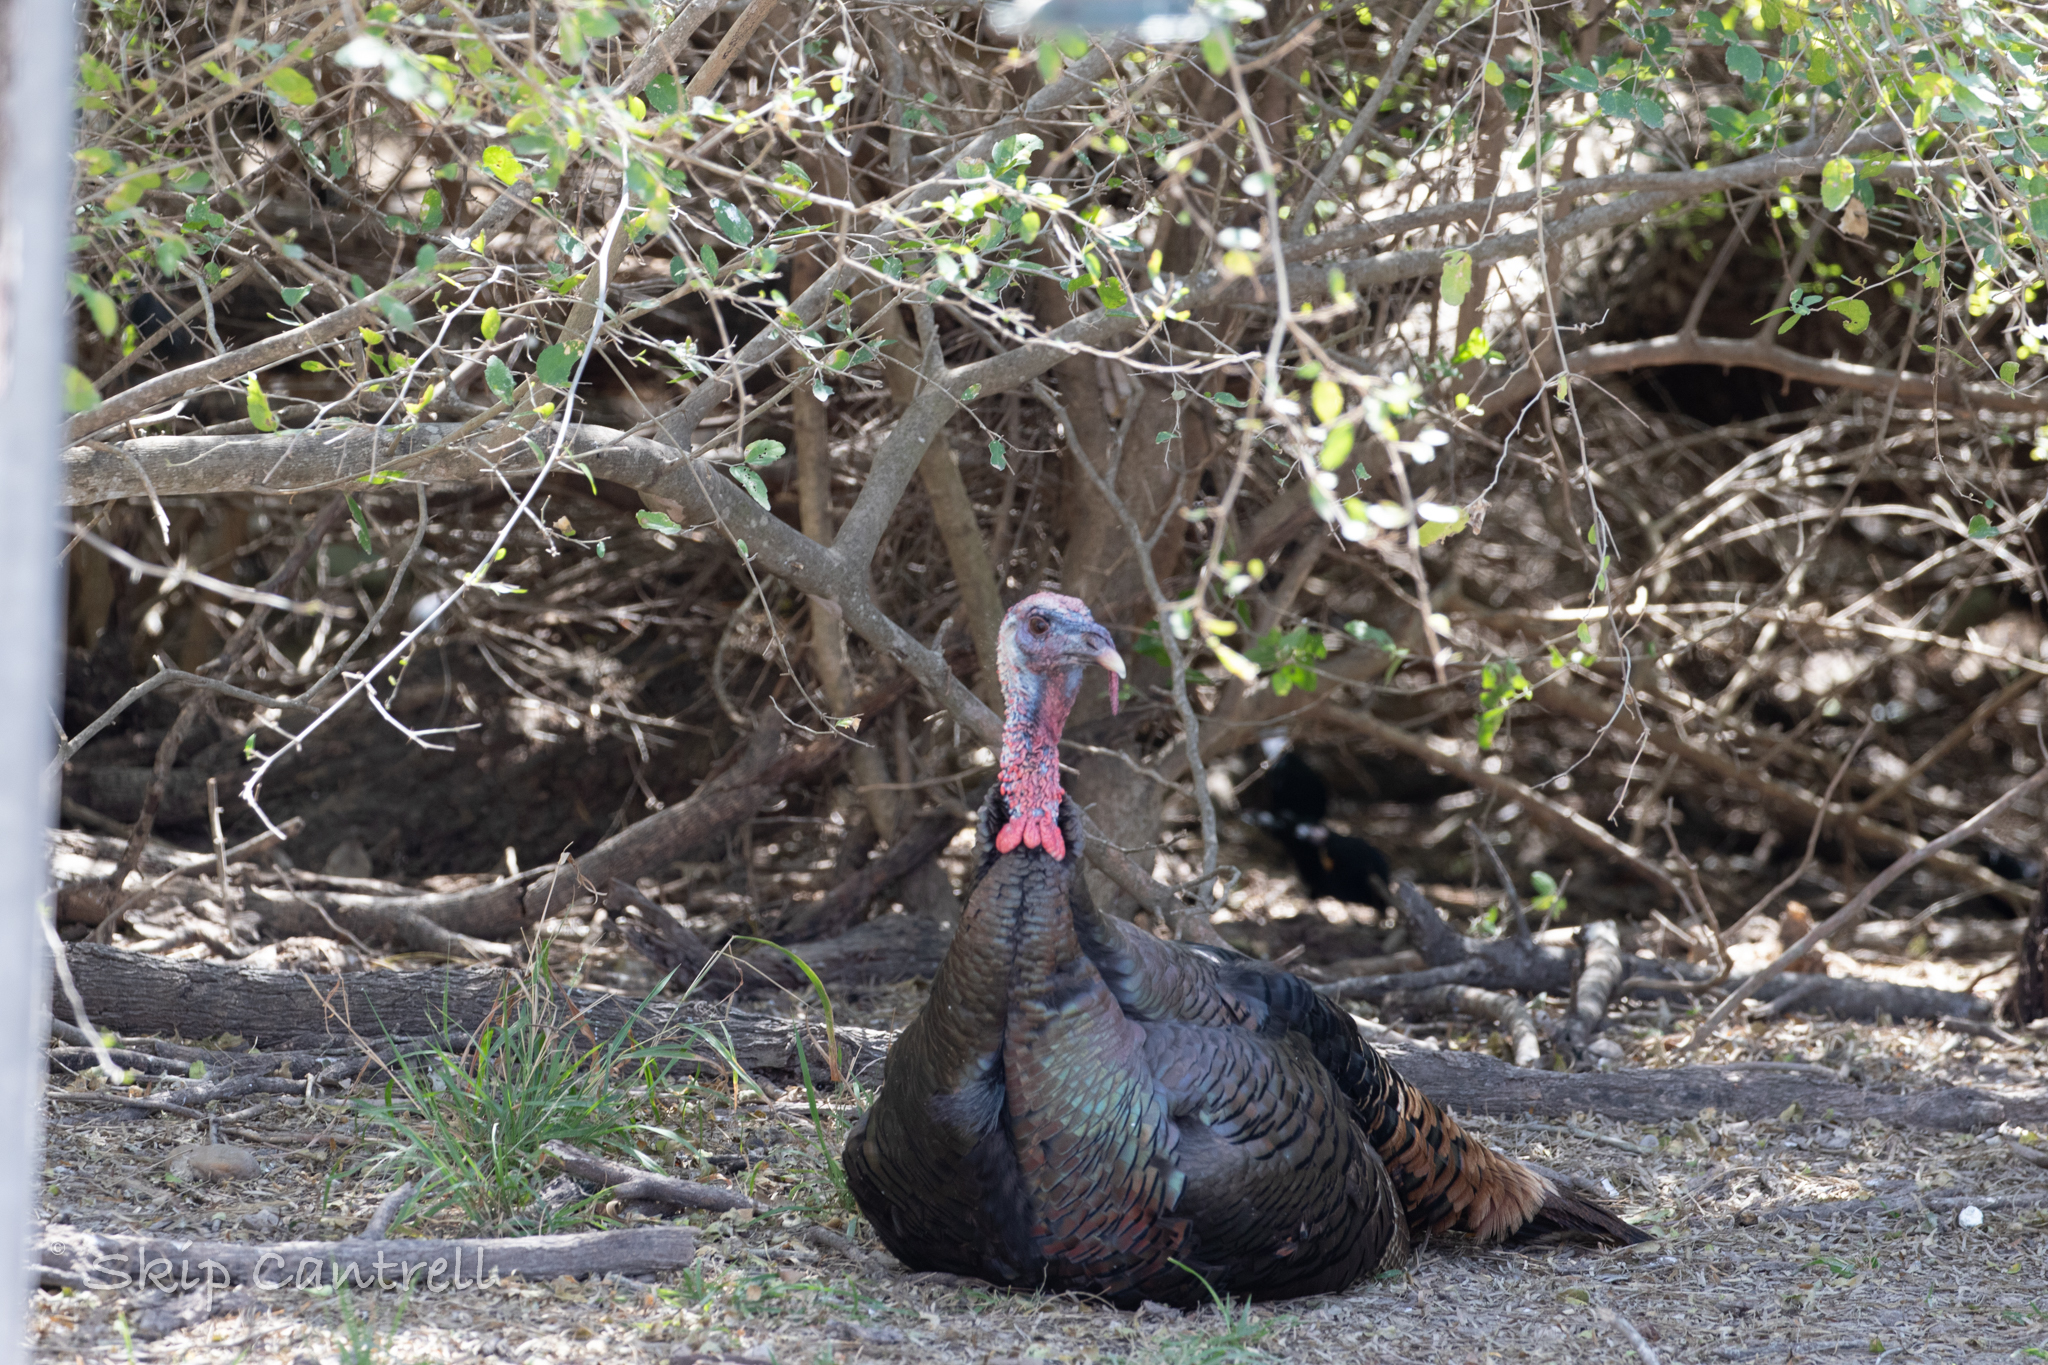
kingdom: Animalia
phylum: Chordata
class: Aves
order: Galliformes
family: Phasianidae
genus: Meleagris
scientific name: Meleagris gallopavo
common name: Wild turkey
